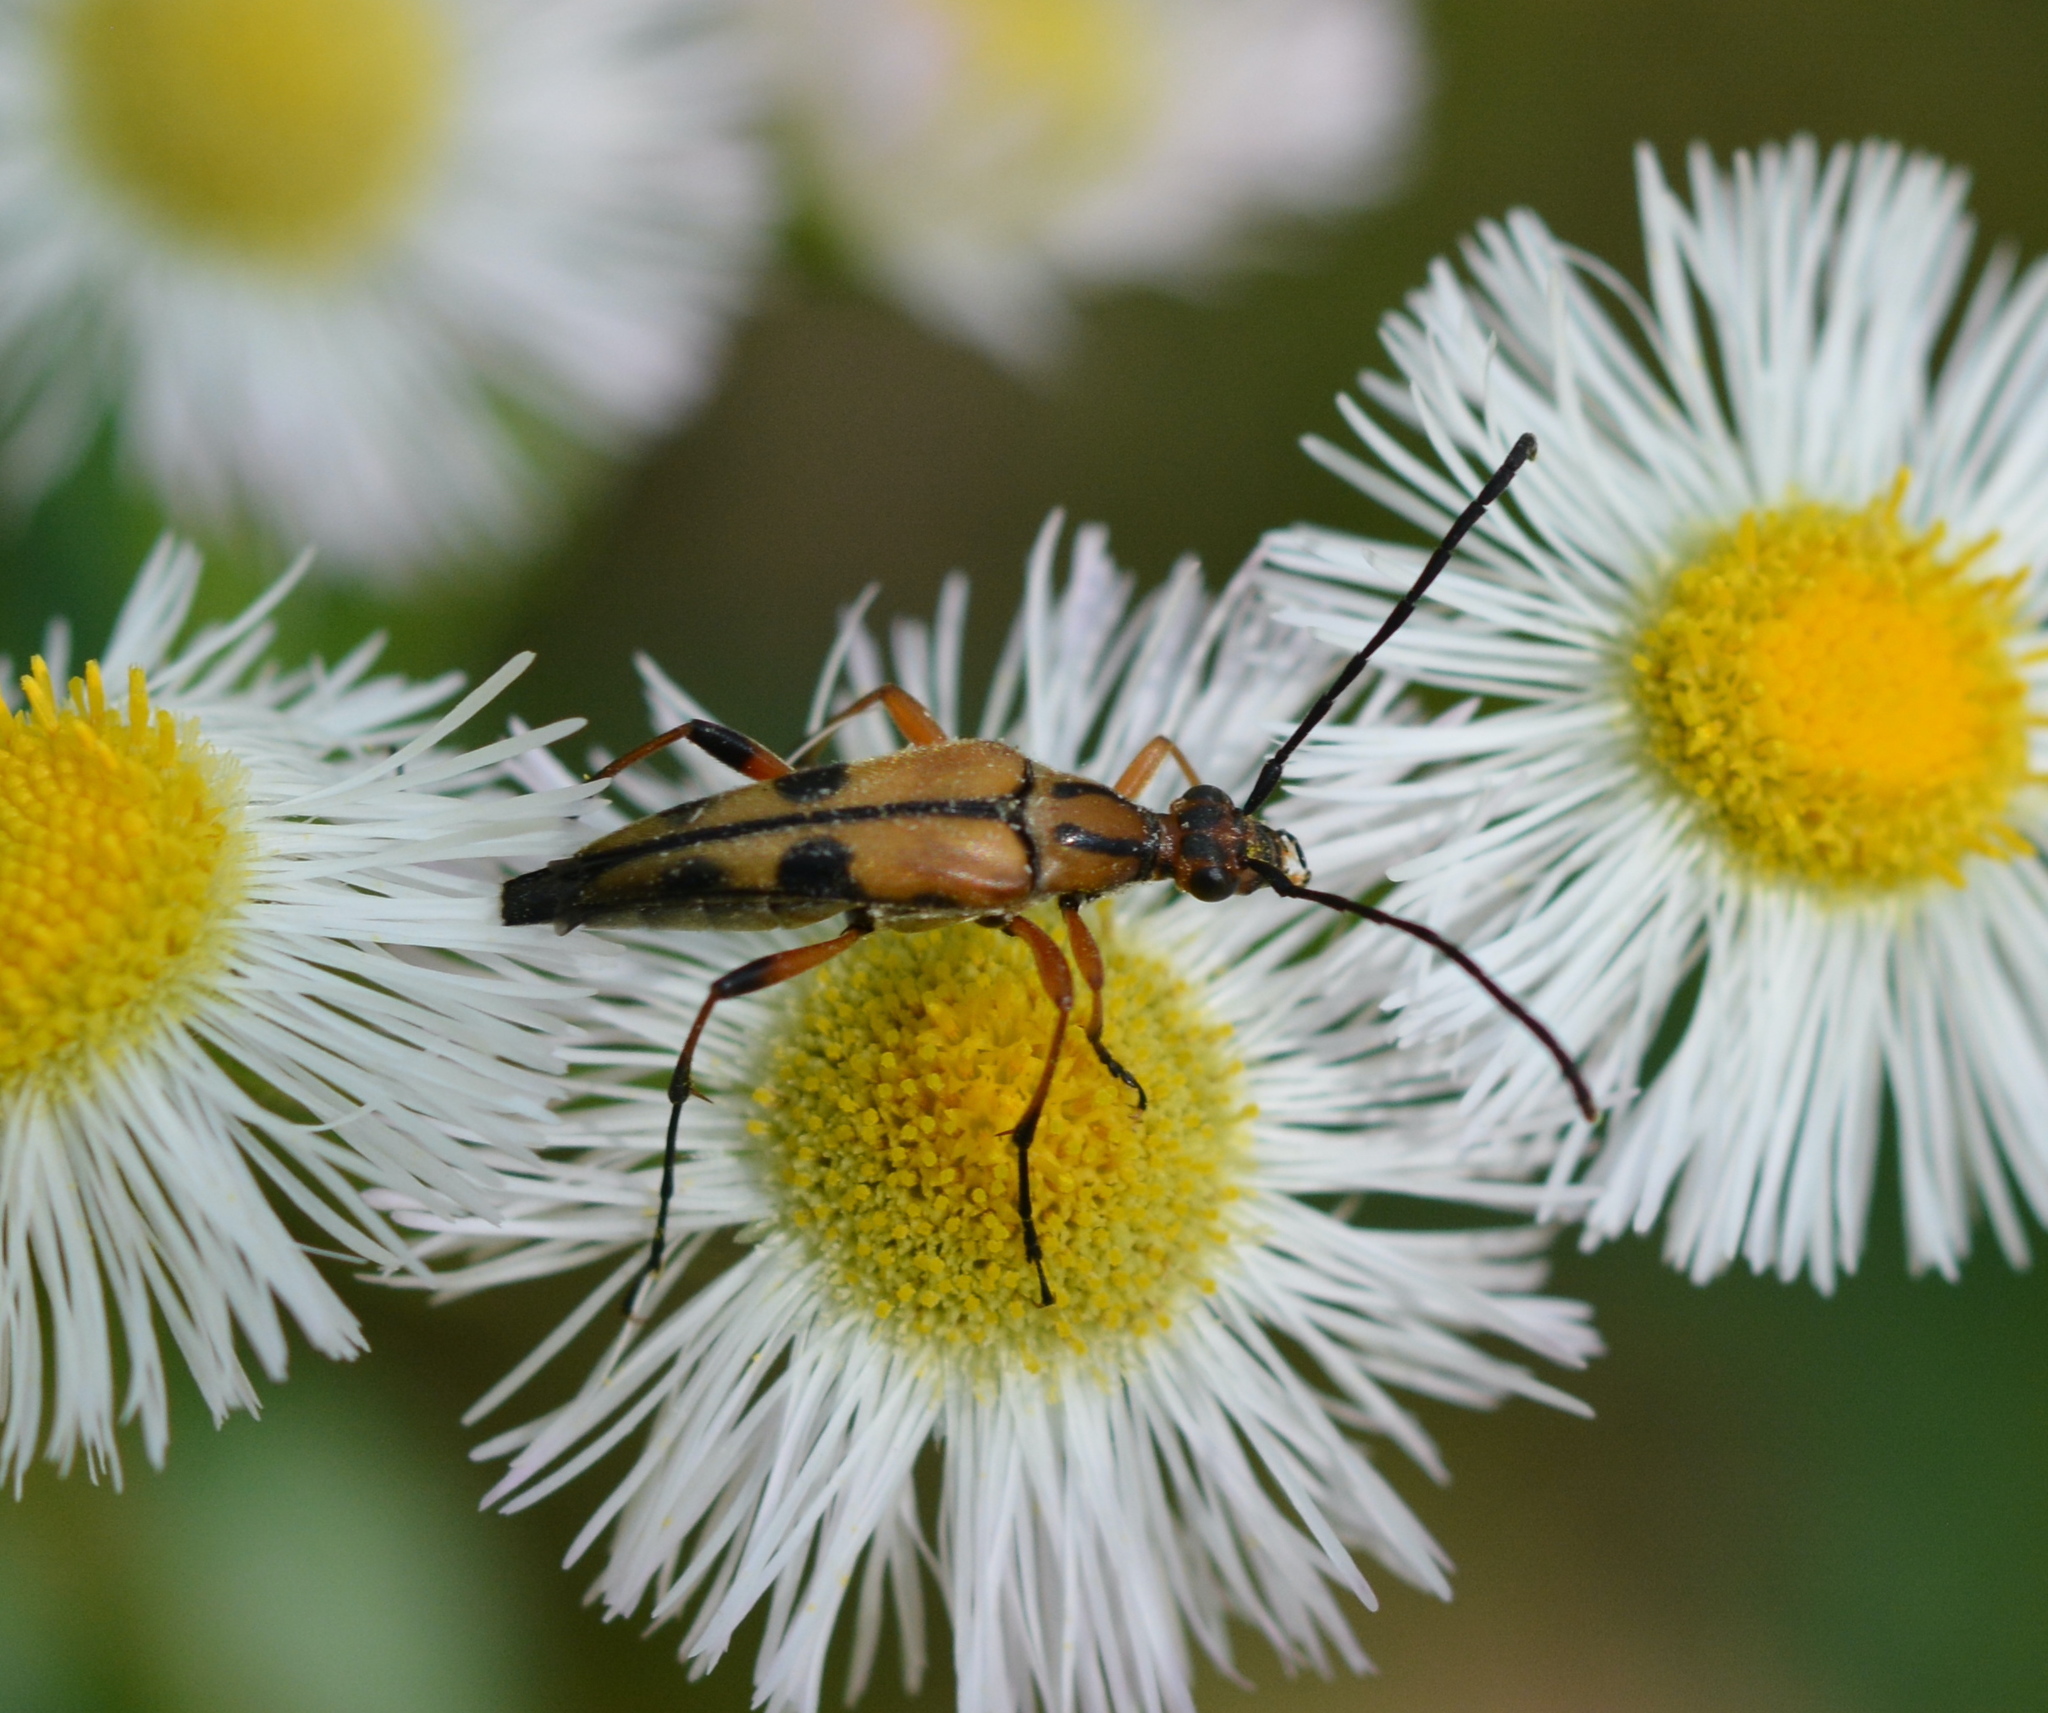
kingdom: Animalia
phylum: Arthropoda
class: Insecta
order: Coleoptera
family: Cerambycidae
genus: Strangalia
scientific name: Strangalia famelica
